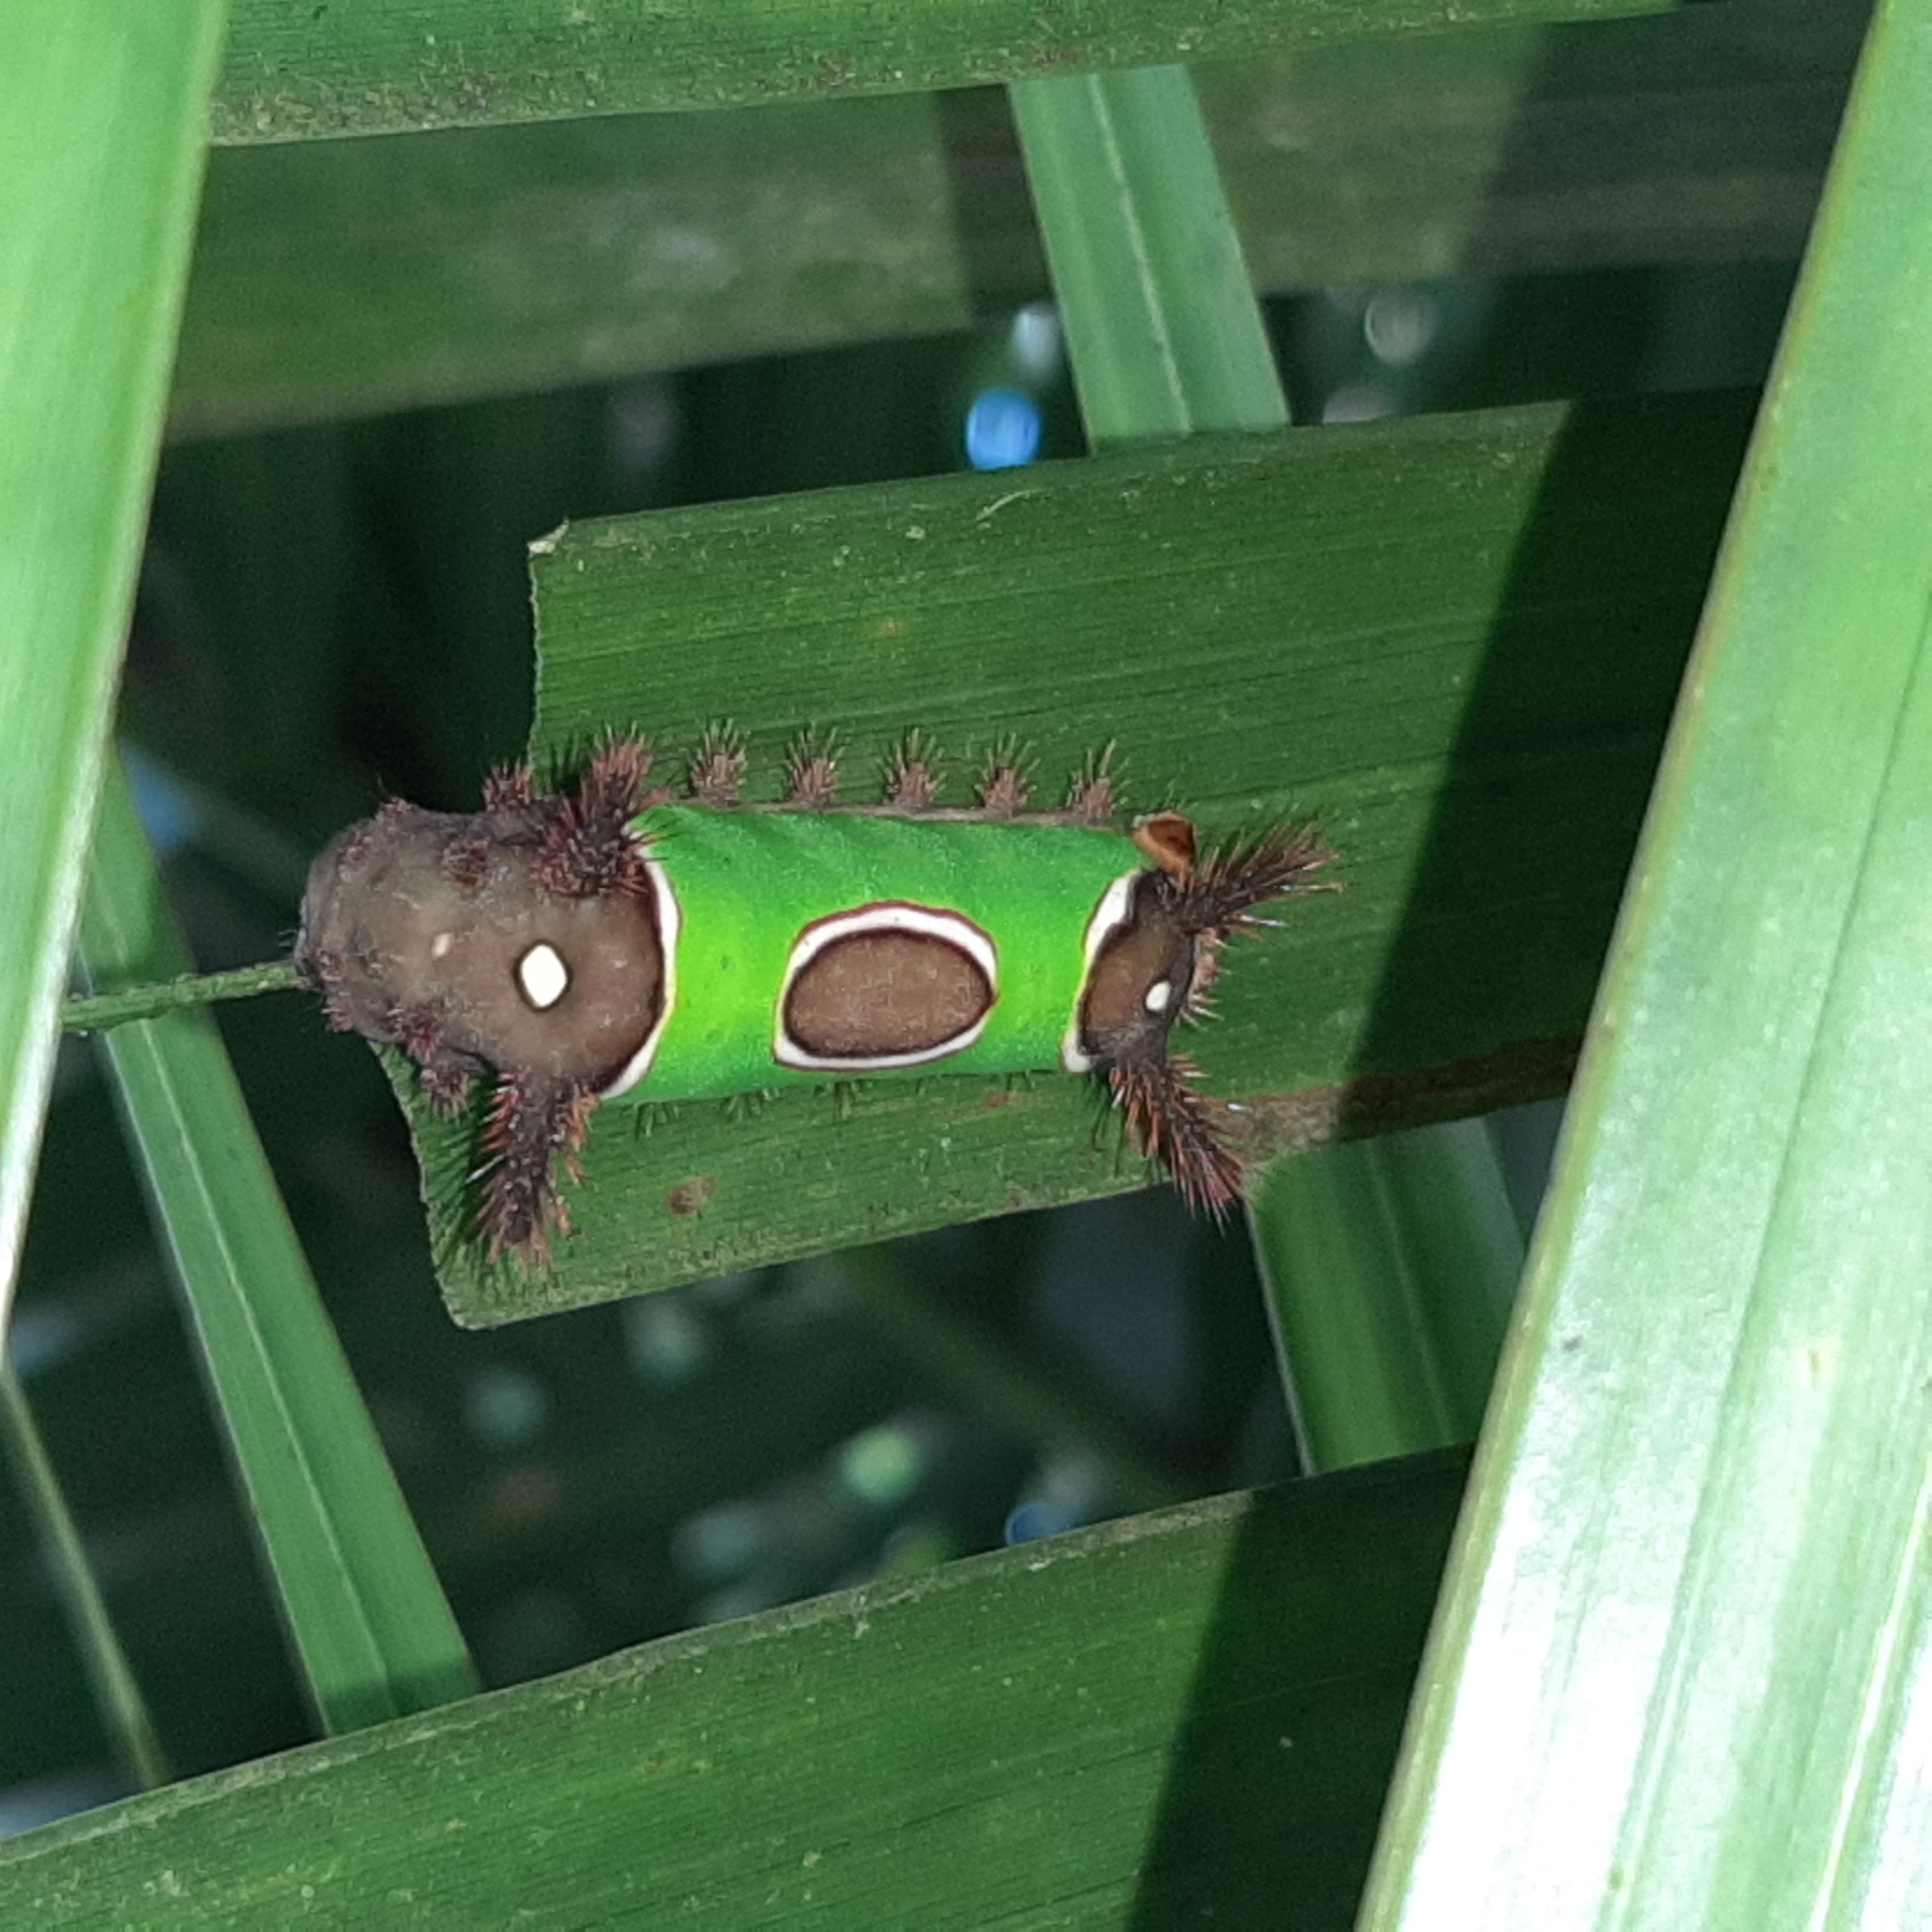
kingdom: Animalia
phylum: Arthropoda
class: Insecta
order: Lepidoptera
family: Limacodidae
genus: Sibine
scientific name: Sibine apicalis
